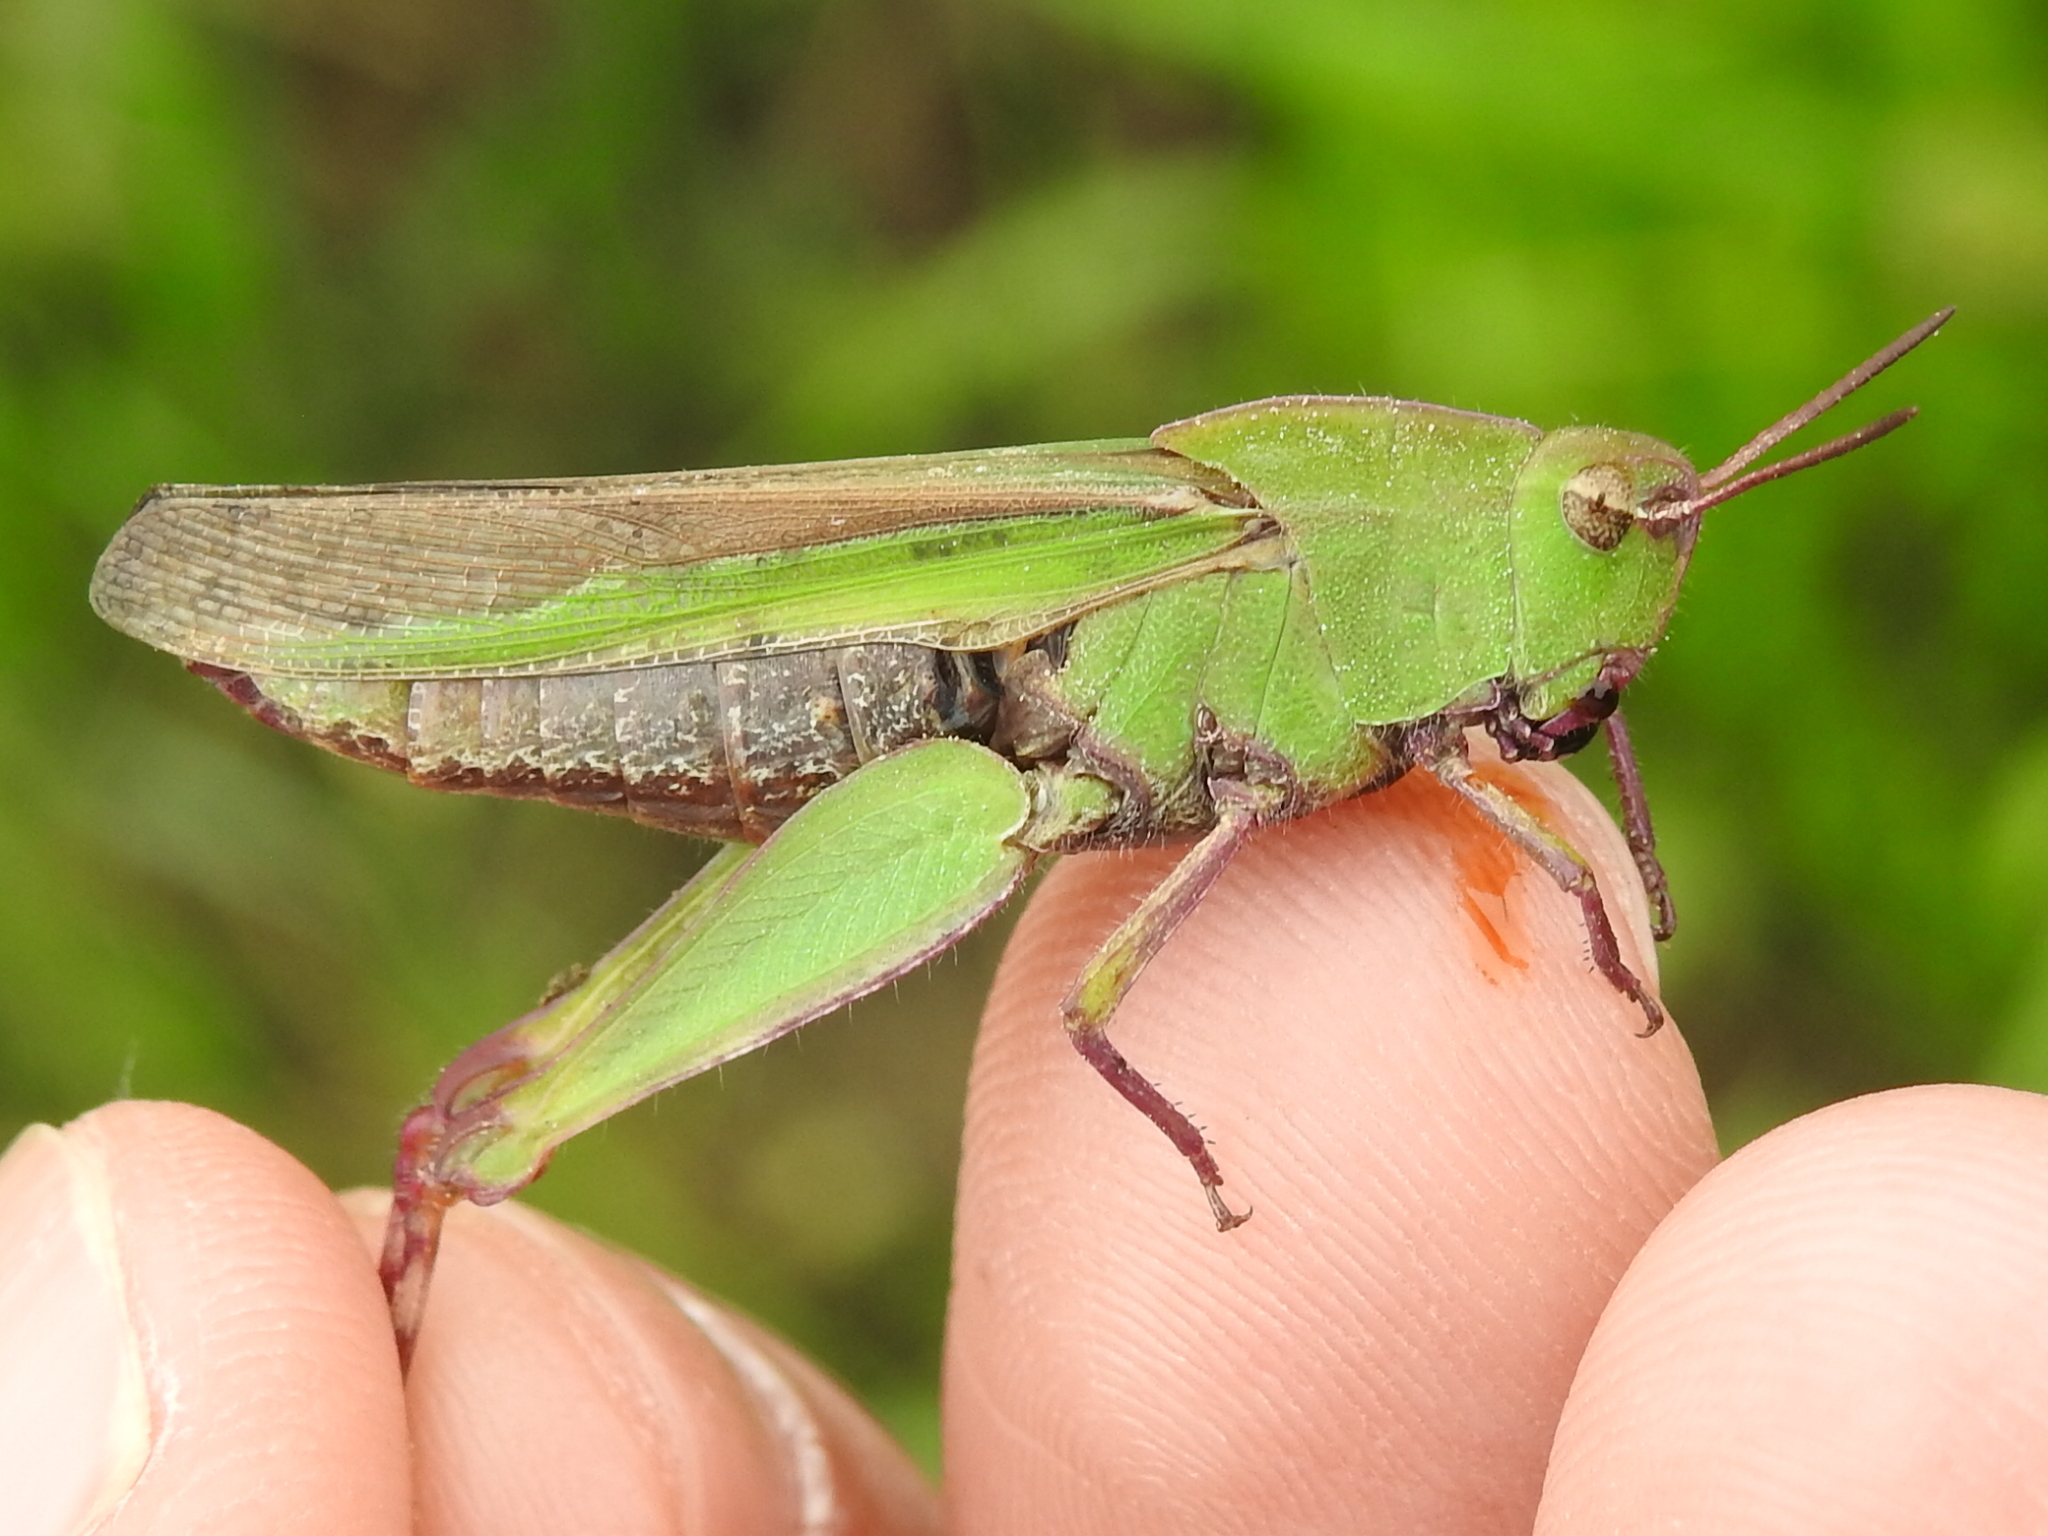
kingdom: Animalia
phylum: Arthropoda
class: Insecta
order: Orthoptera
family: Acrididae
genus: Chortophaga
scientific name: Chortophaga viridifasciata
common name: Green-striped grasshopper
